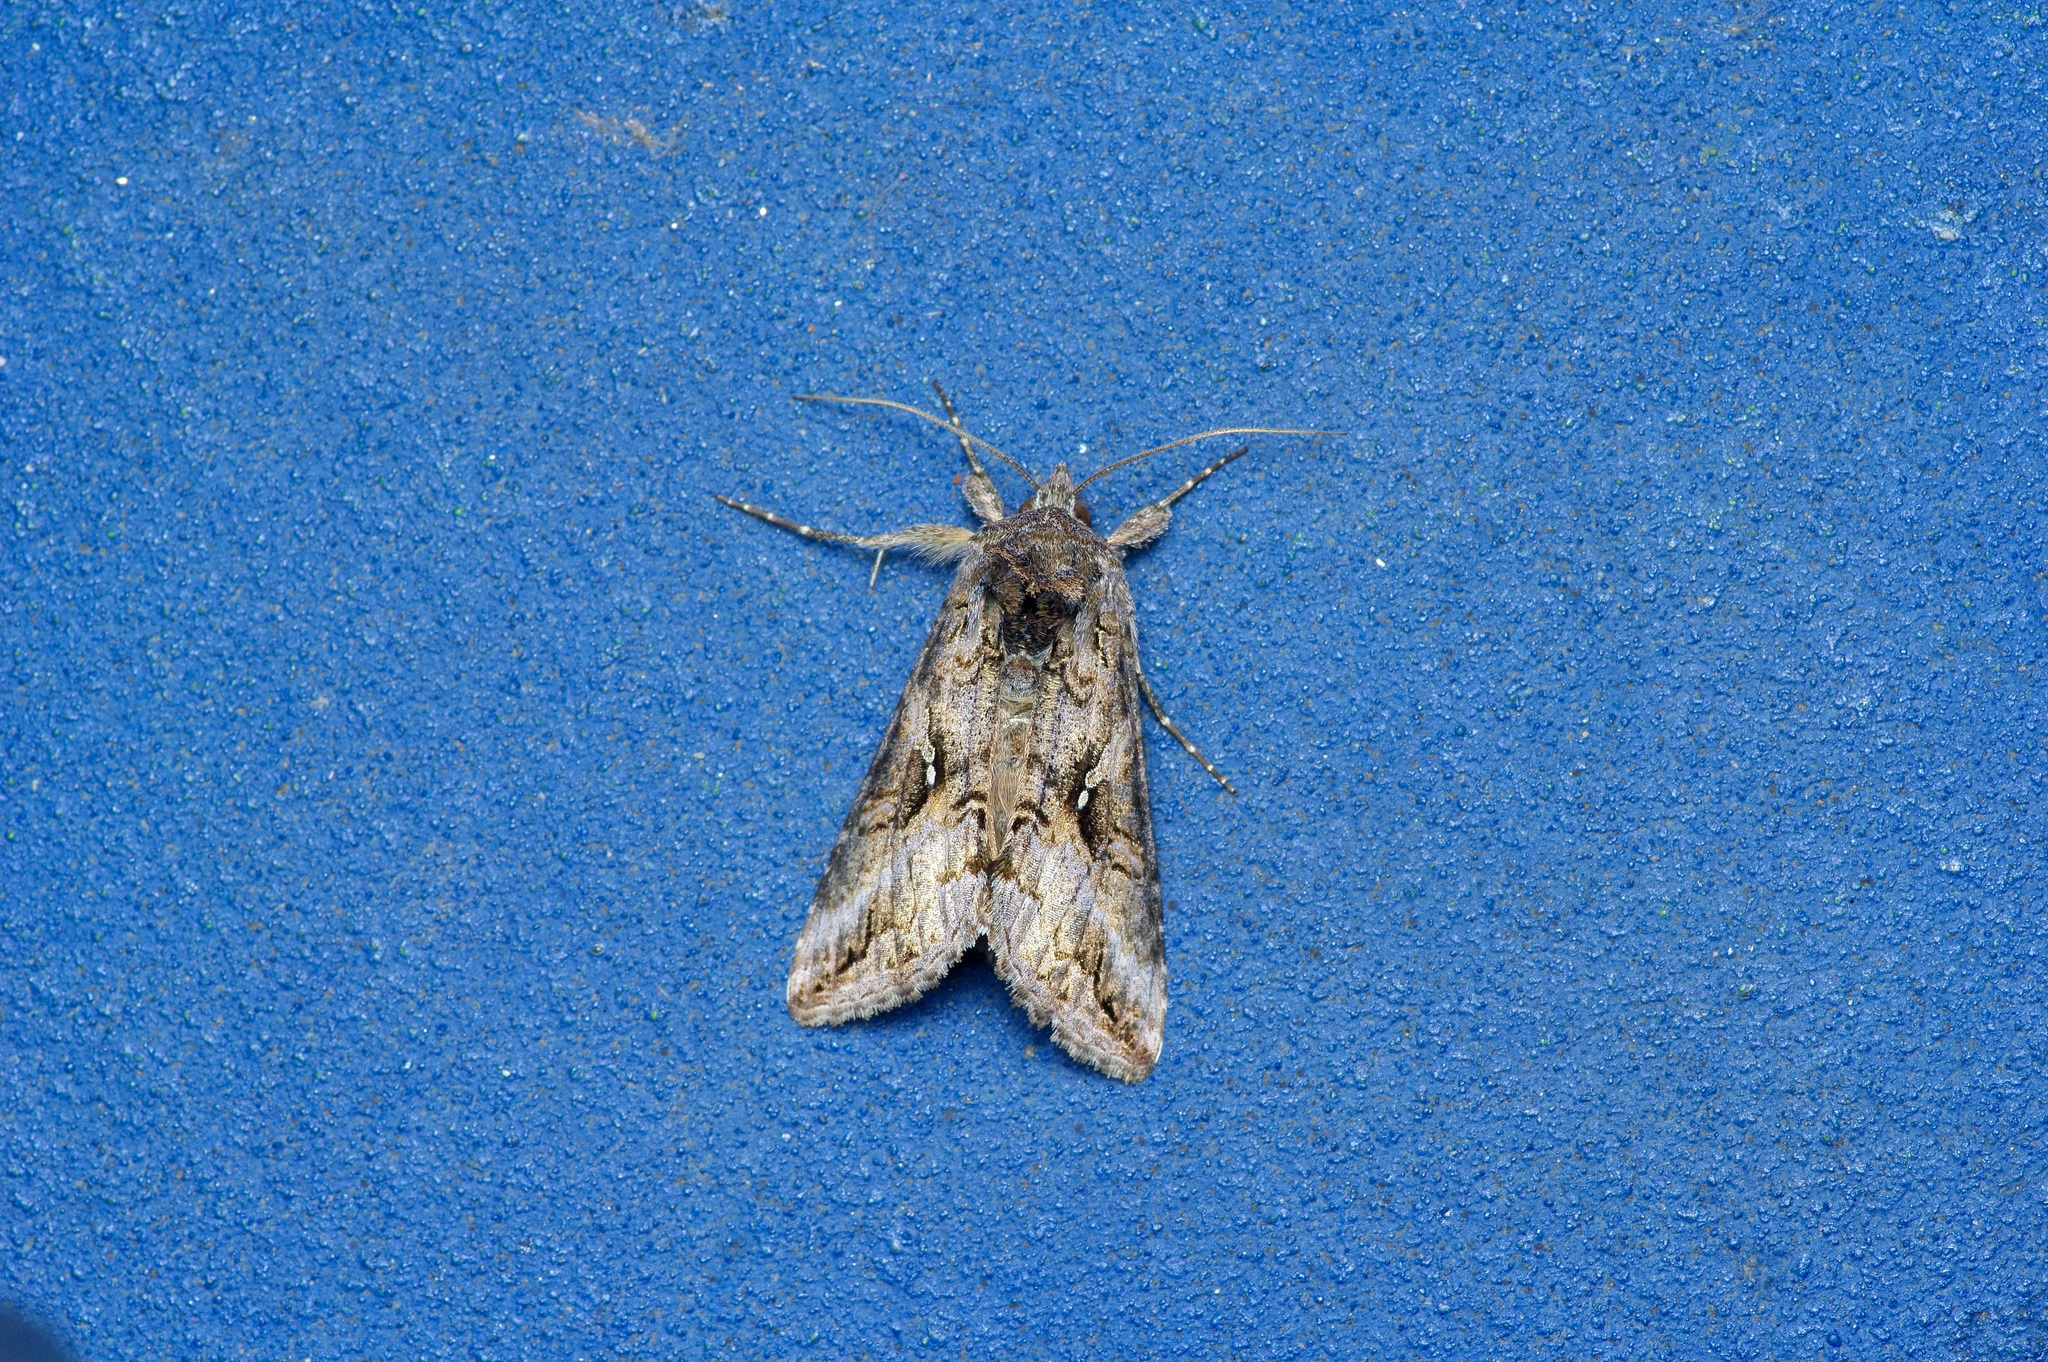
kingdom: Animalia
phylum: Arthropoda
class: Insecta
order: Lepidoptera
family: Noctuidae
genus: Rachiplusia
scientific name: Rachiplusia ou
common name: Gray looper moth
